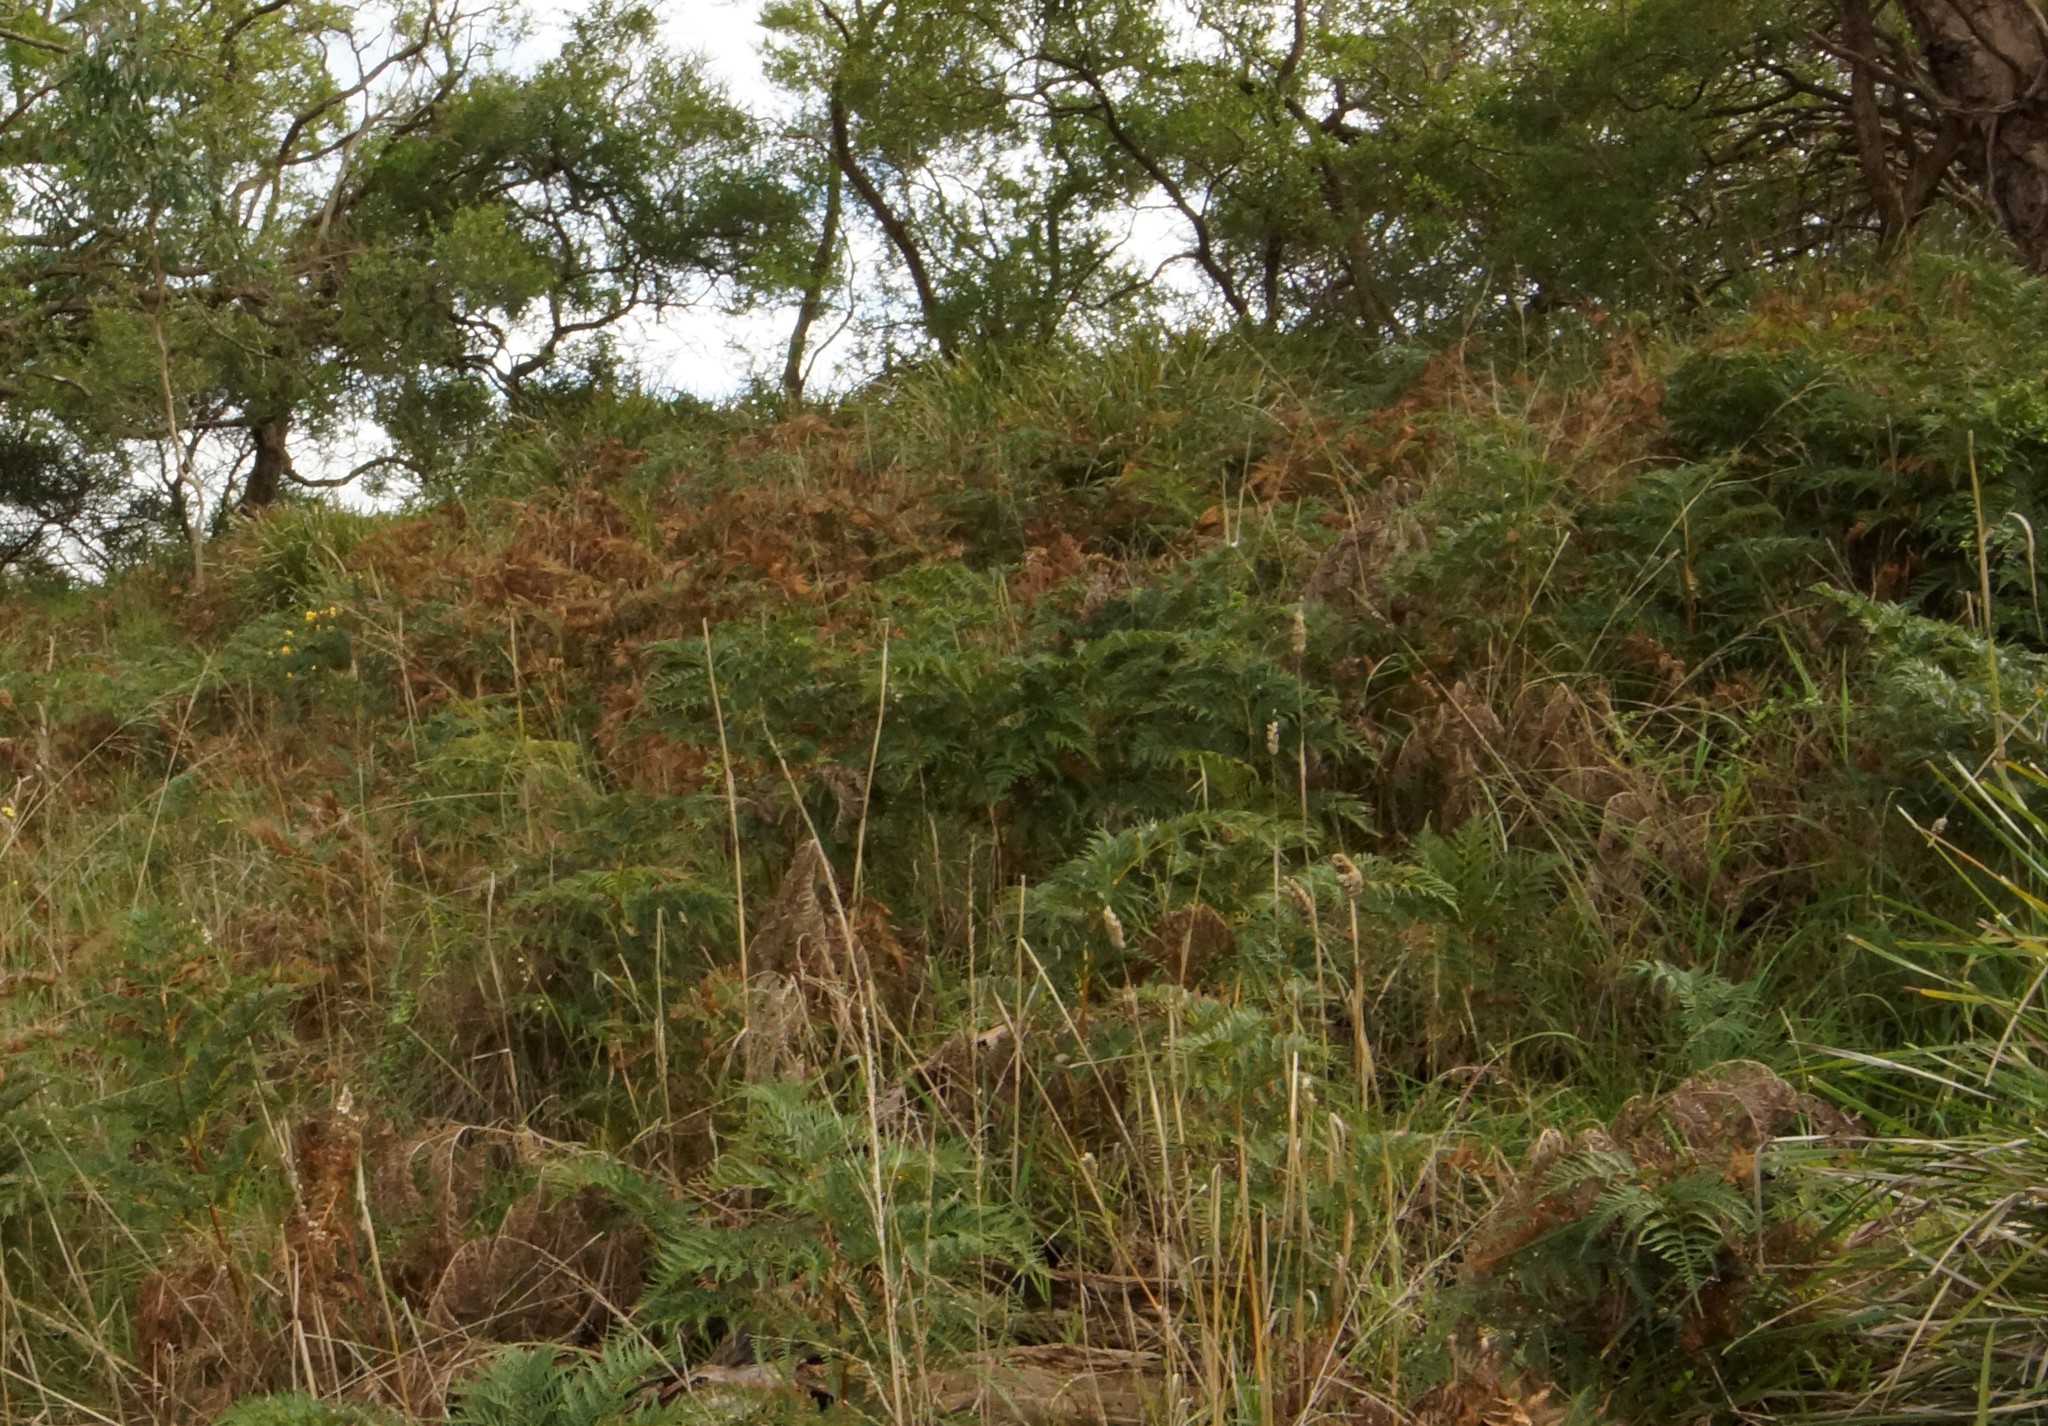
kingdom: Plantae
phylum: Tracheophyta
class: Polypodiopsida
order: Polypodiales
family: Dennstaedtiaceae
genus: Pteridium
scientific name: Pteridium esculentum
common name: Bracken fern
